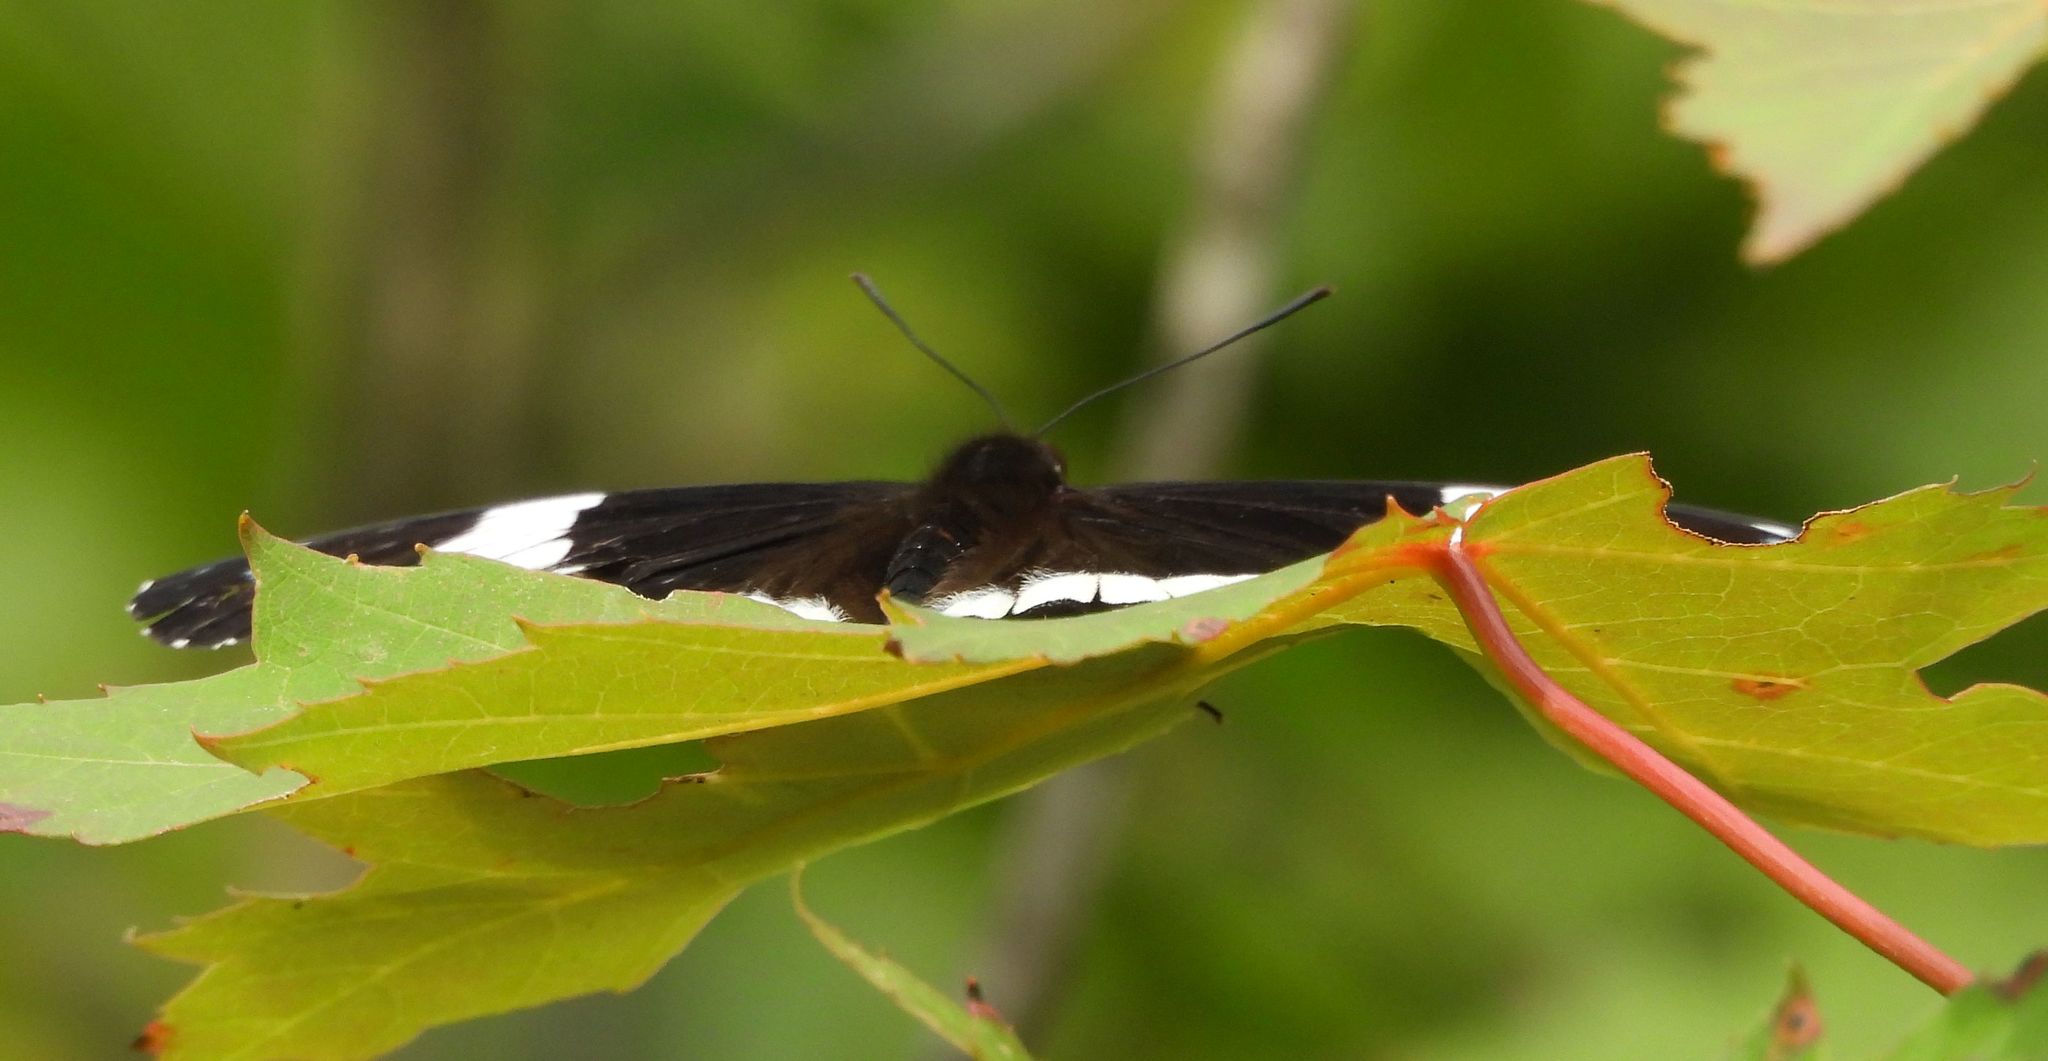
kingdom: Animalia
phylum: Arthropoda
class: Insecta
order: Lepidoptera
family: Nymphalidae
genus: Limenitis
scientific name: Limenitis arthemis
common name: Red-spotted admiral
